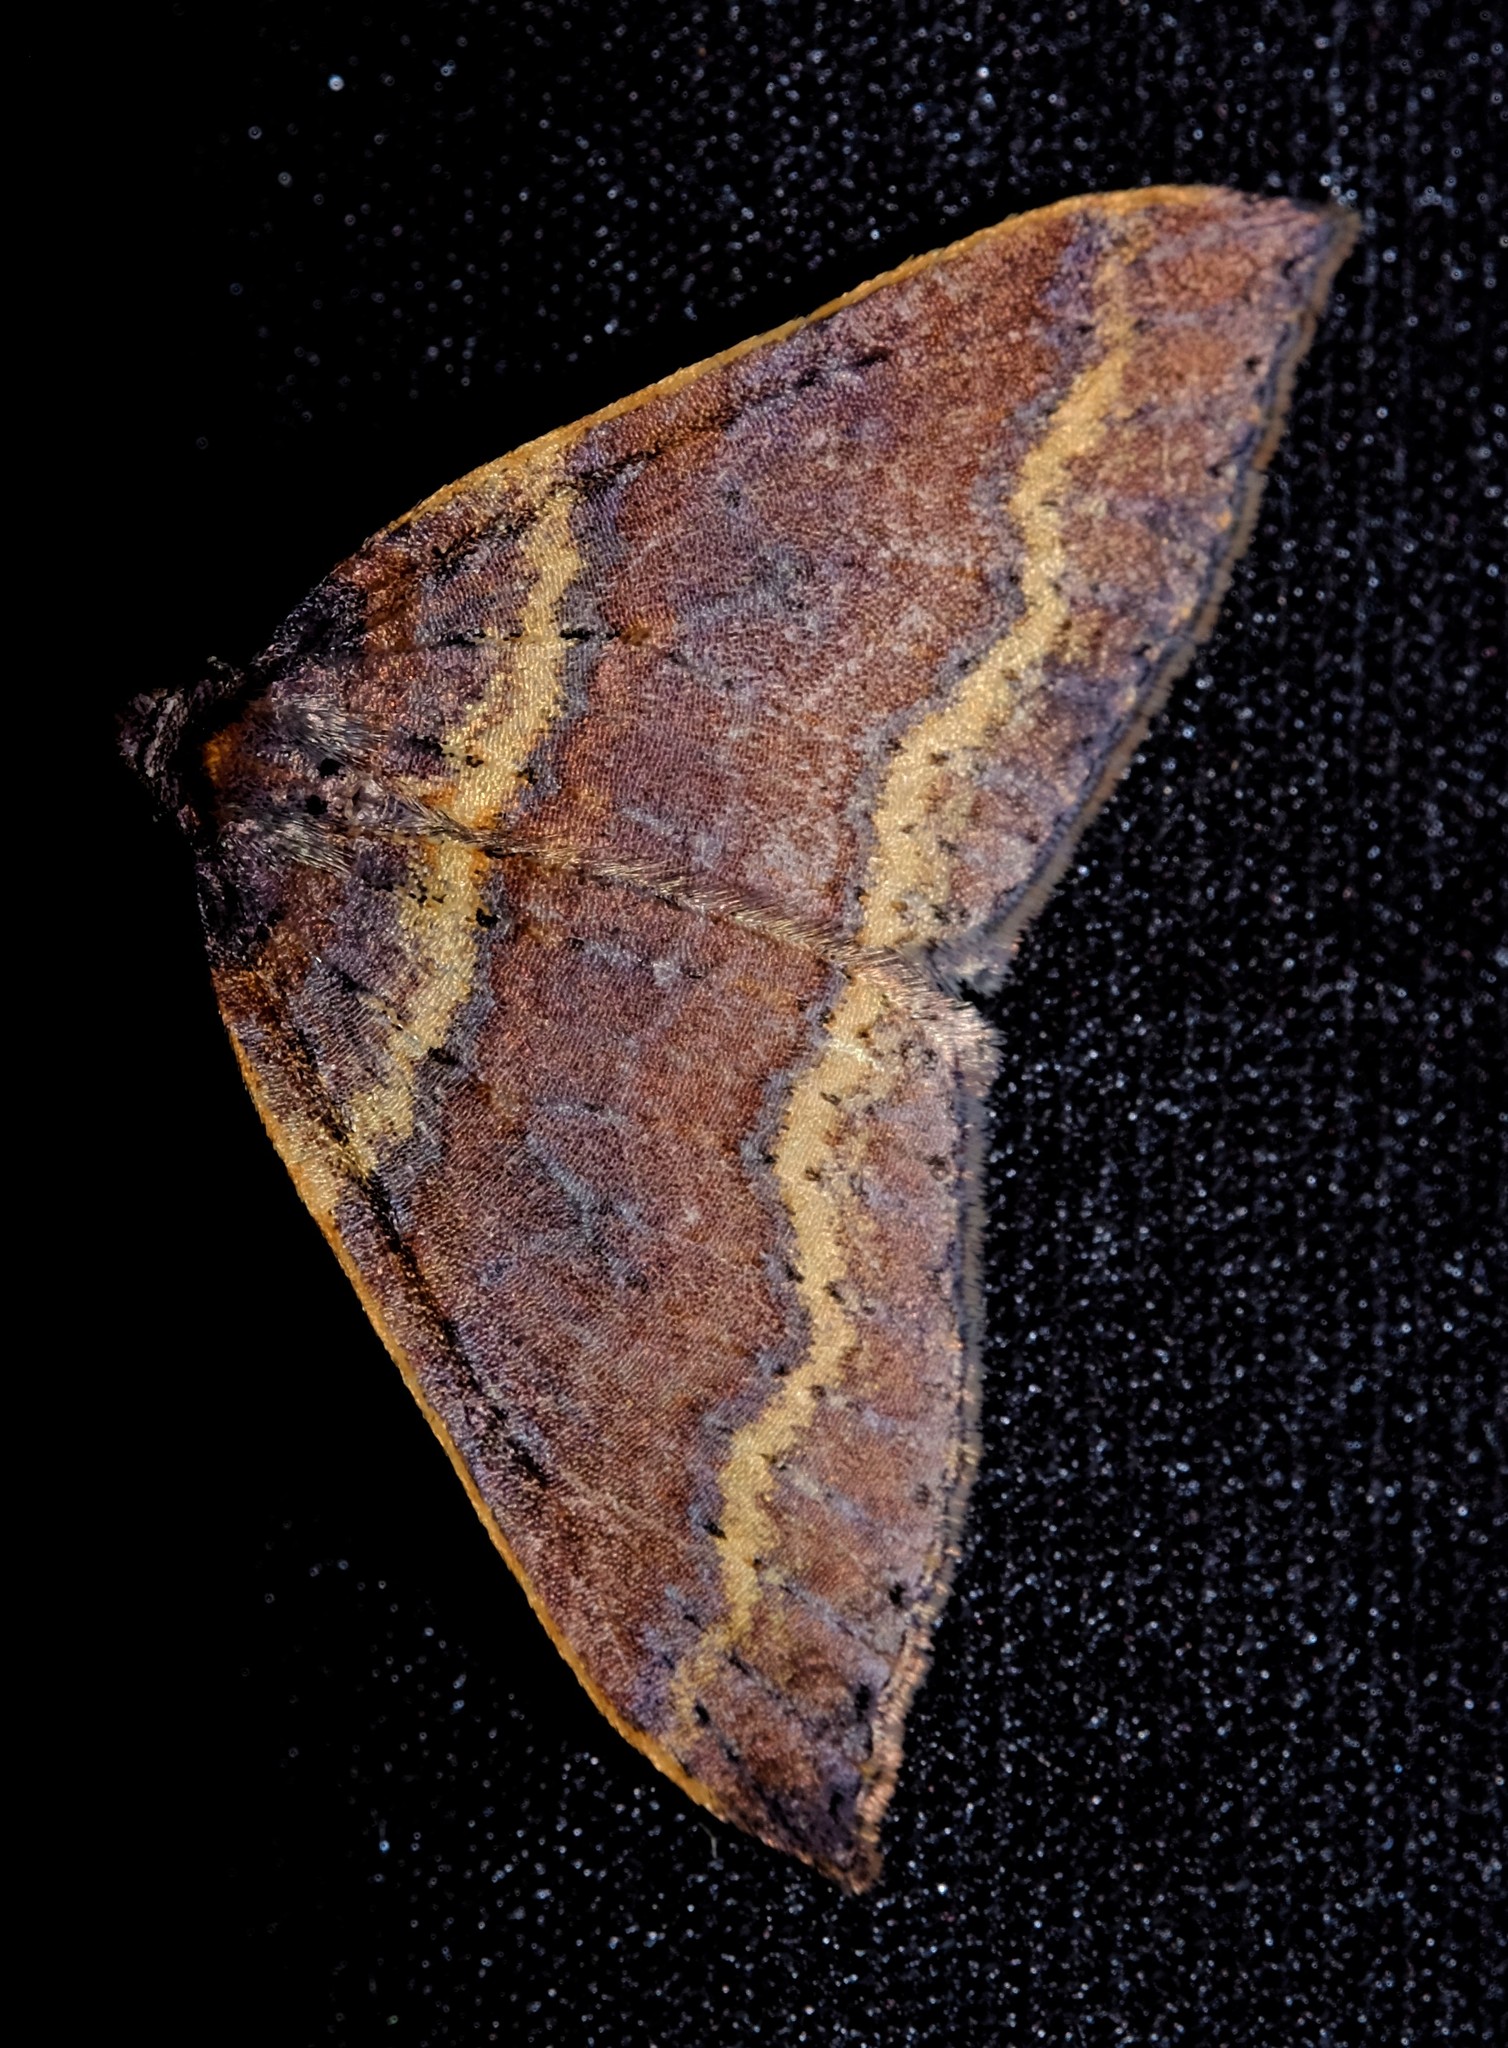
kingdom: Animalia
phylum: Arthropoda
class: Insecta
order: Lepidoptera
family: Geometridae
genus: Larentia
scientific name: Larentia apotoma
